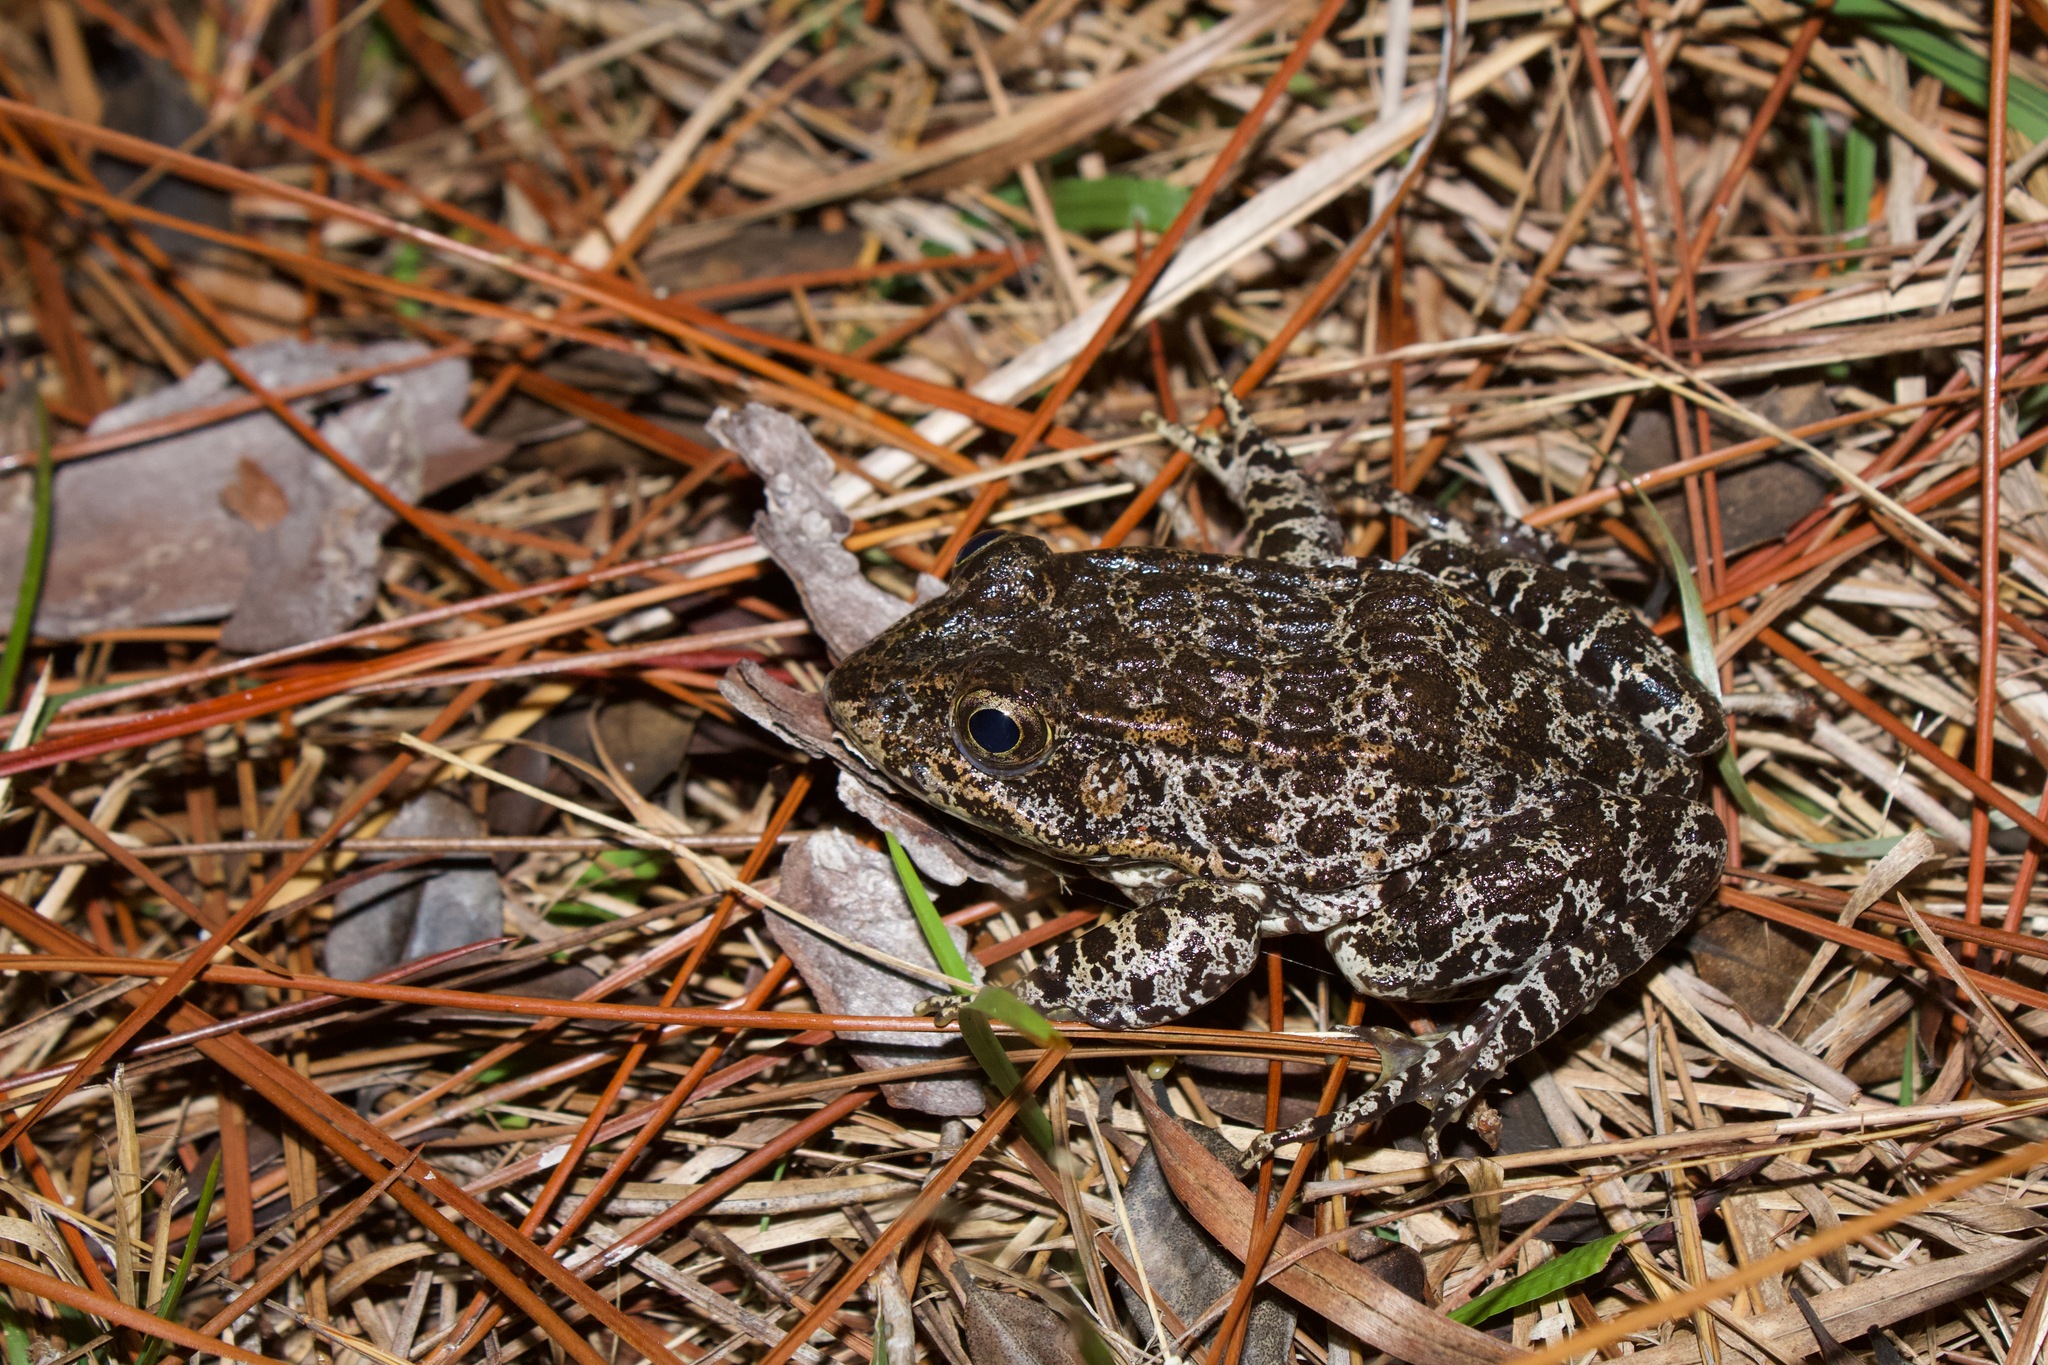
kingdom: Animalia
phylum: Chordata
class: Amphibia
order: Anura
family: Ranidae
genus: Lithobates
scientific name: Lithobates sevosus
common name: Dusky gopher frog
